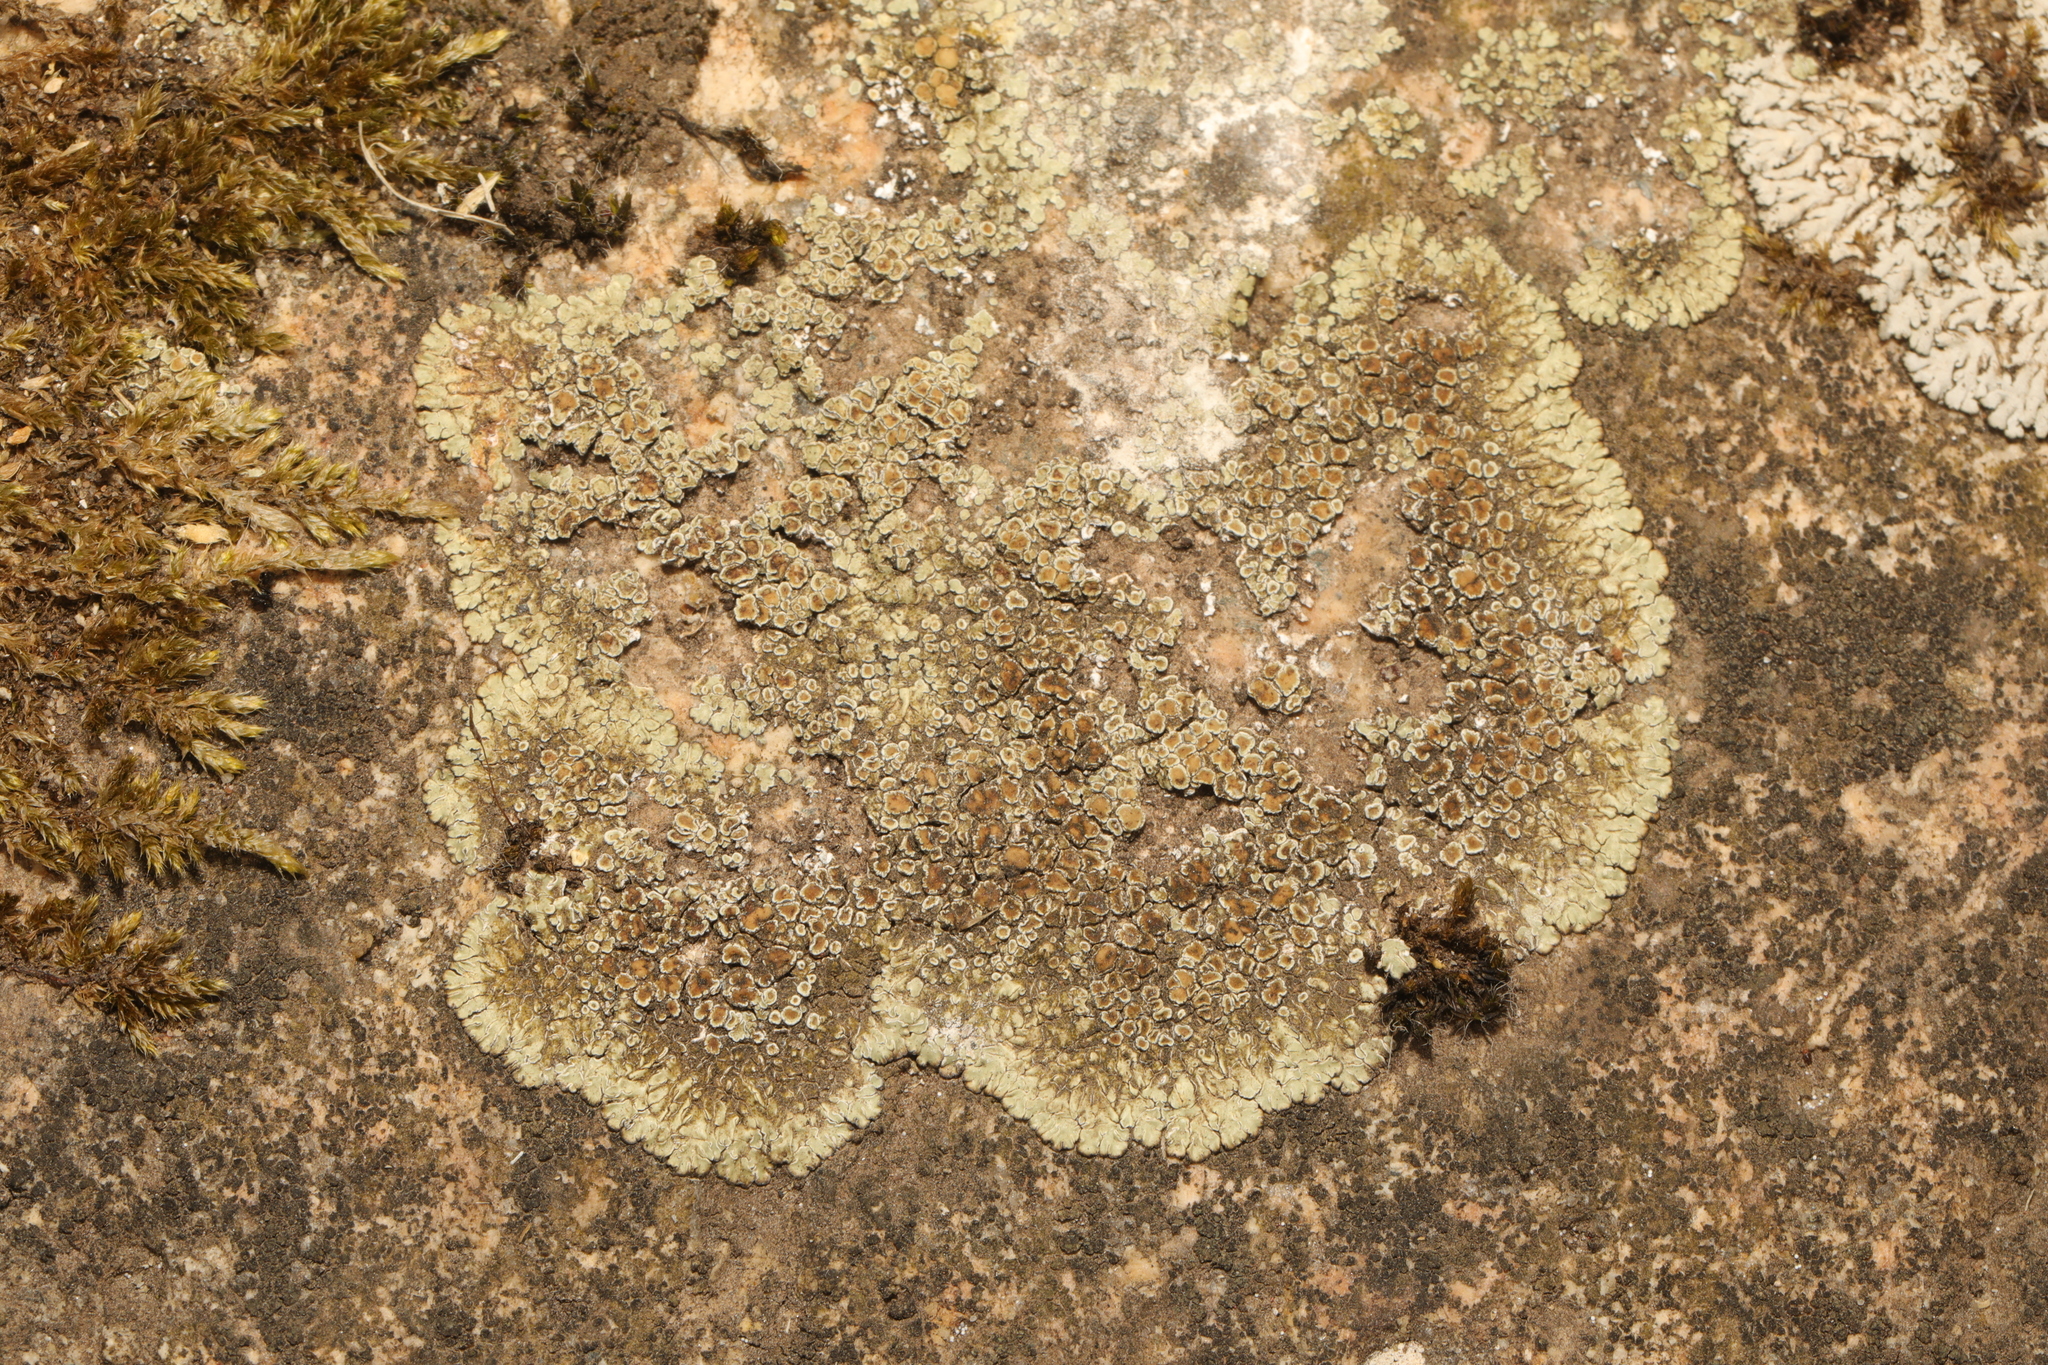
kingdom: Fungi
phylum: Ascomycota
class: Lecanoromycetes
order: Lecanorales
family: Lecanoraceae
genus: Protoparmeliopsis
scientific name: Protoparmeliopsis muralis
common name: Stonewall rim lichen
